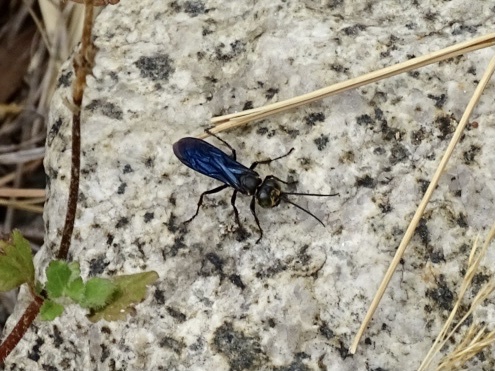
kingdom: Animalia
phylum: Arthropoda
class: Insecta
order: Hymenoptera
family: Crabronidae
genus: Liris
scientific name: Liris anthracinus
